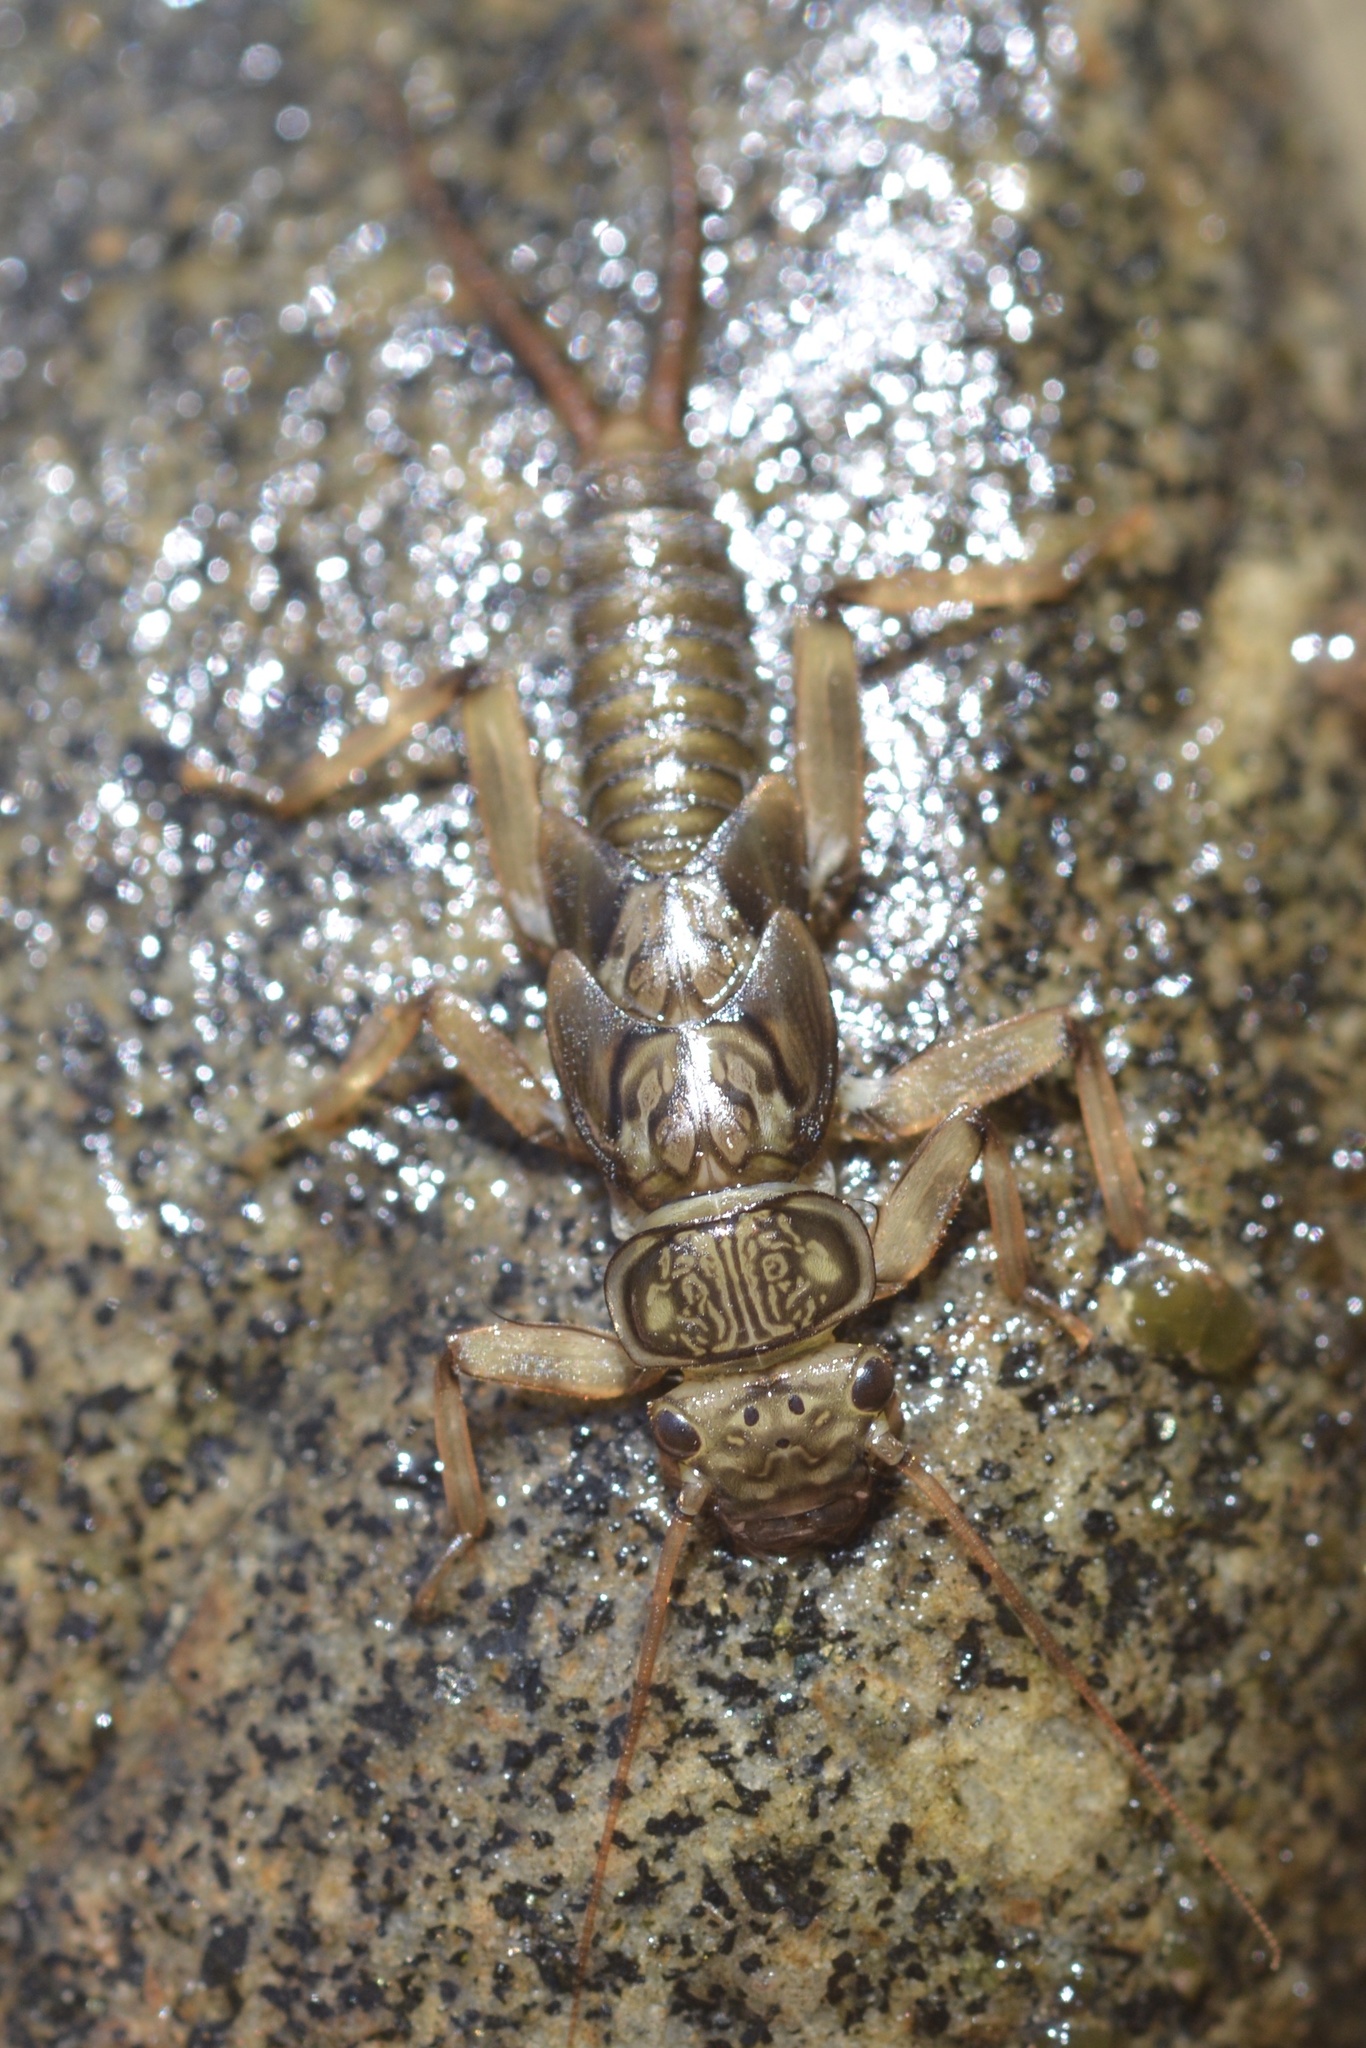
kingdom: Animalia
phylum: Arthropoda
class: Insecta
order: Plecoptera
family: Perlidae
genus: Calineuria
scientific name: Calineuria californica
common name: Western stone
